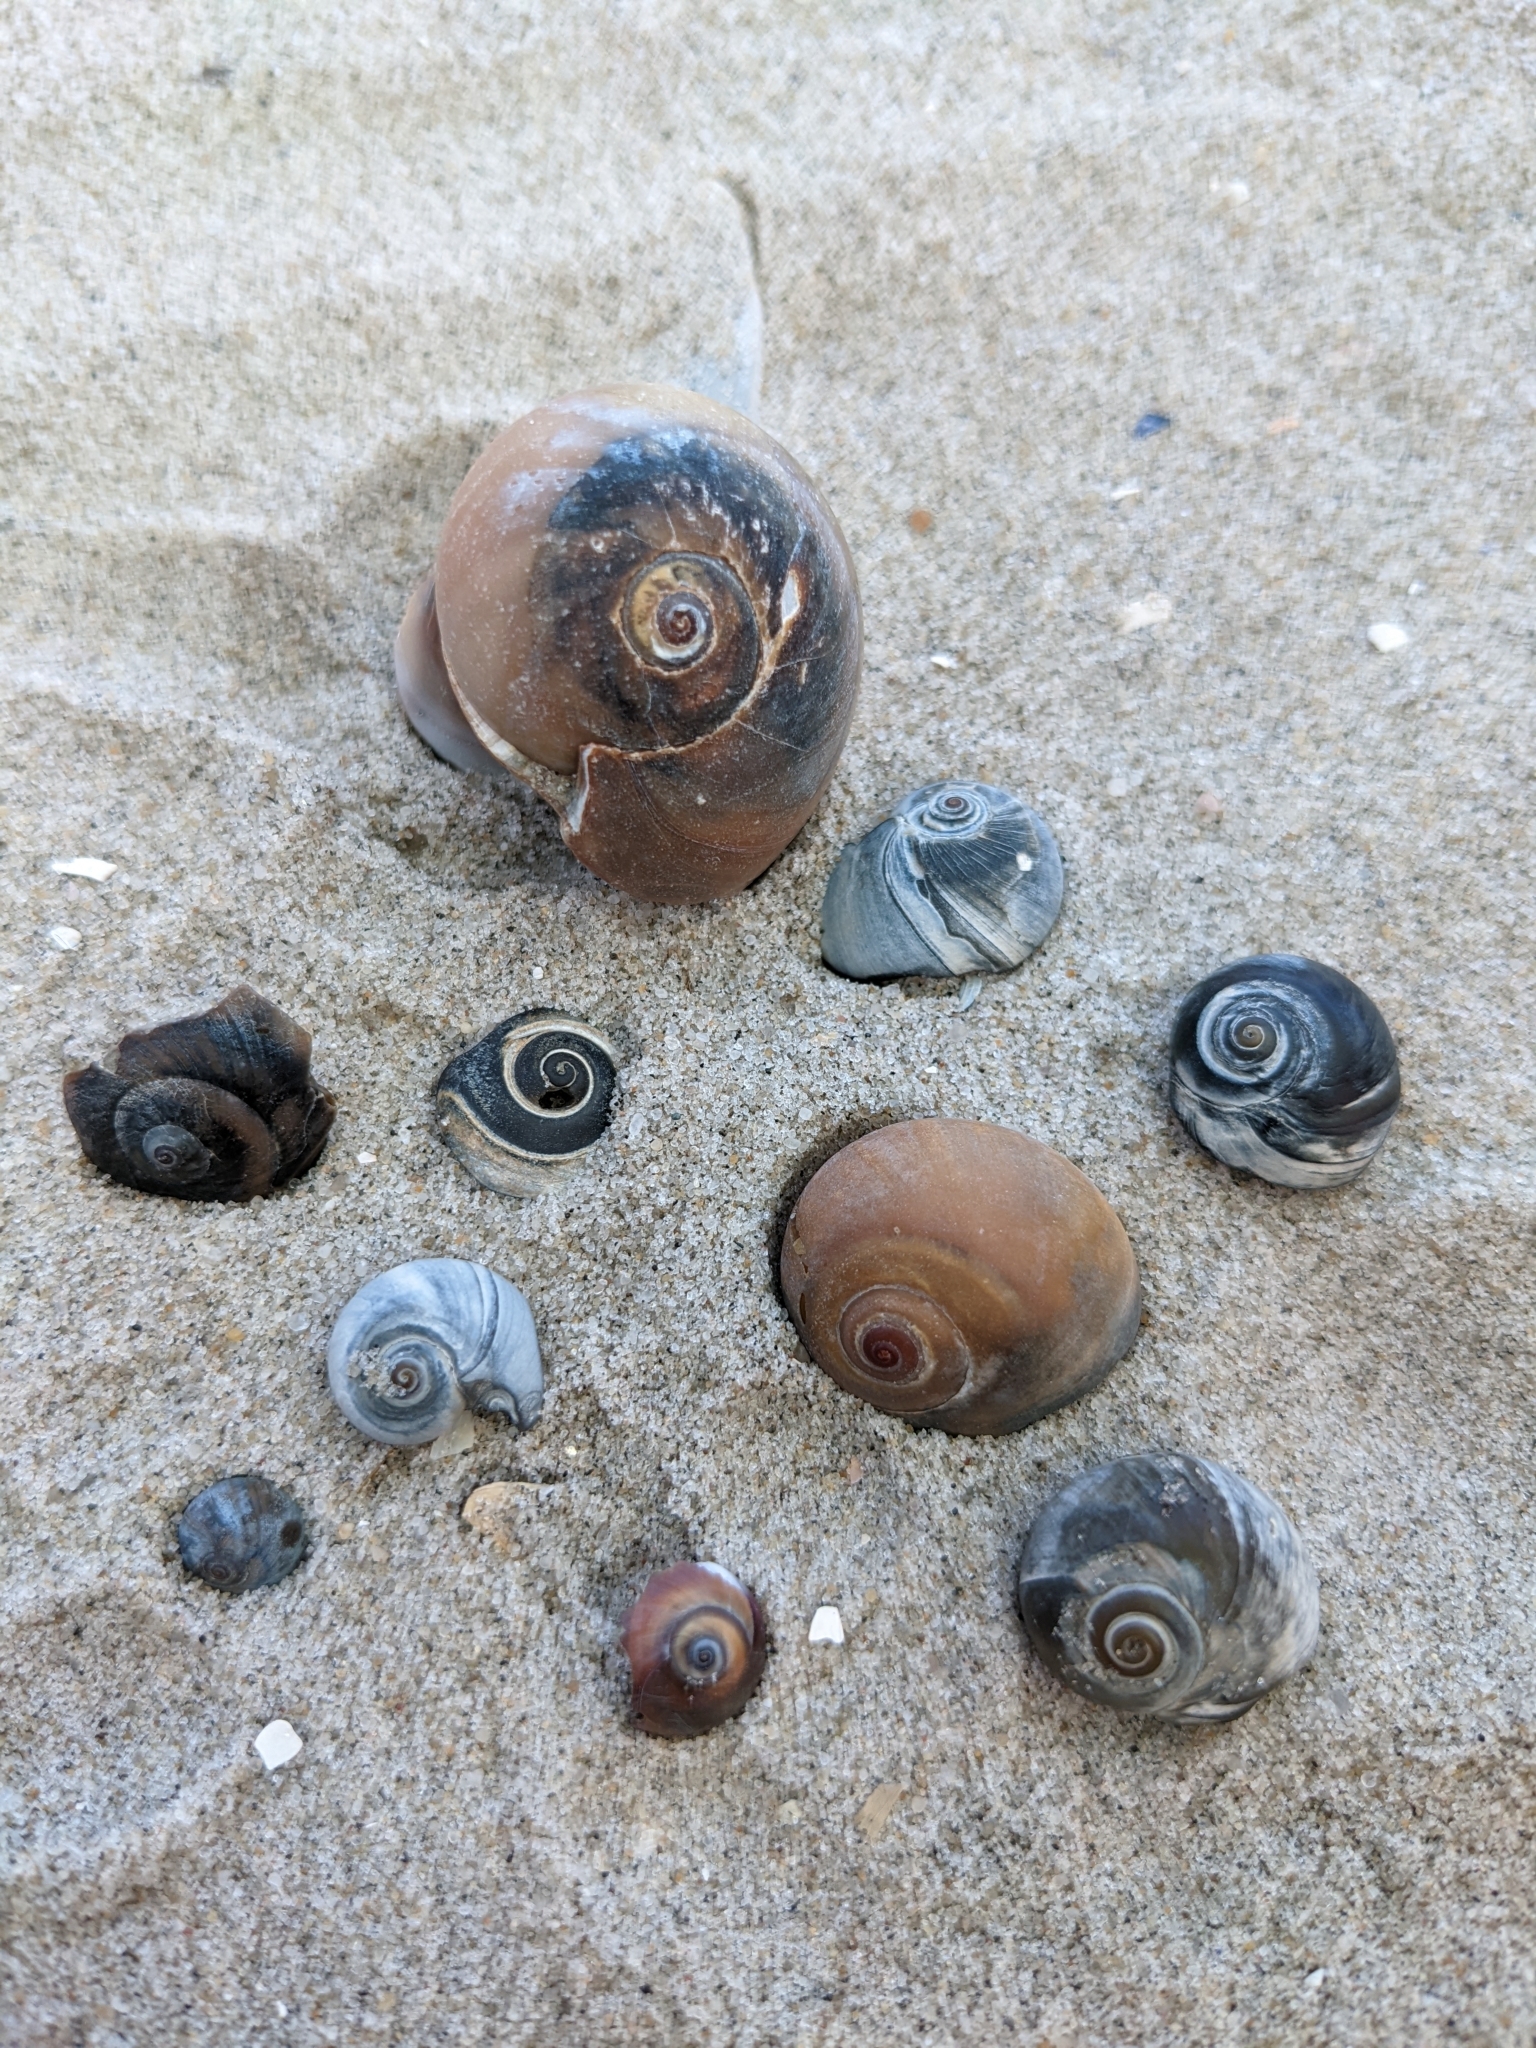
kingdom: Animalia
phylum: Mollusca
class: Gastropoda
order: Littorinimorpha
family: Naticidae
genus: Neverita
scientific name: Neverita duplicata
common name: Lobed moonsnail
